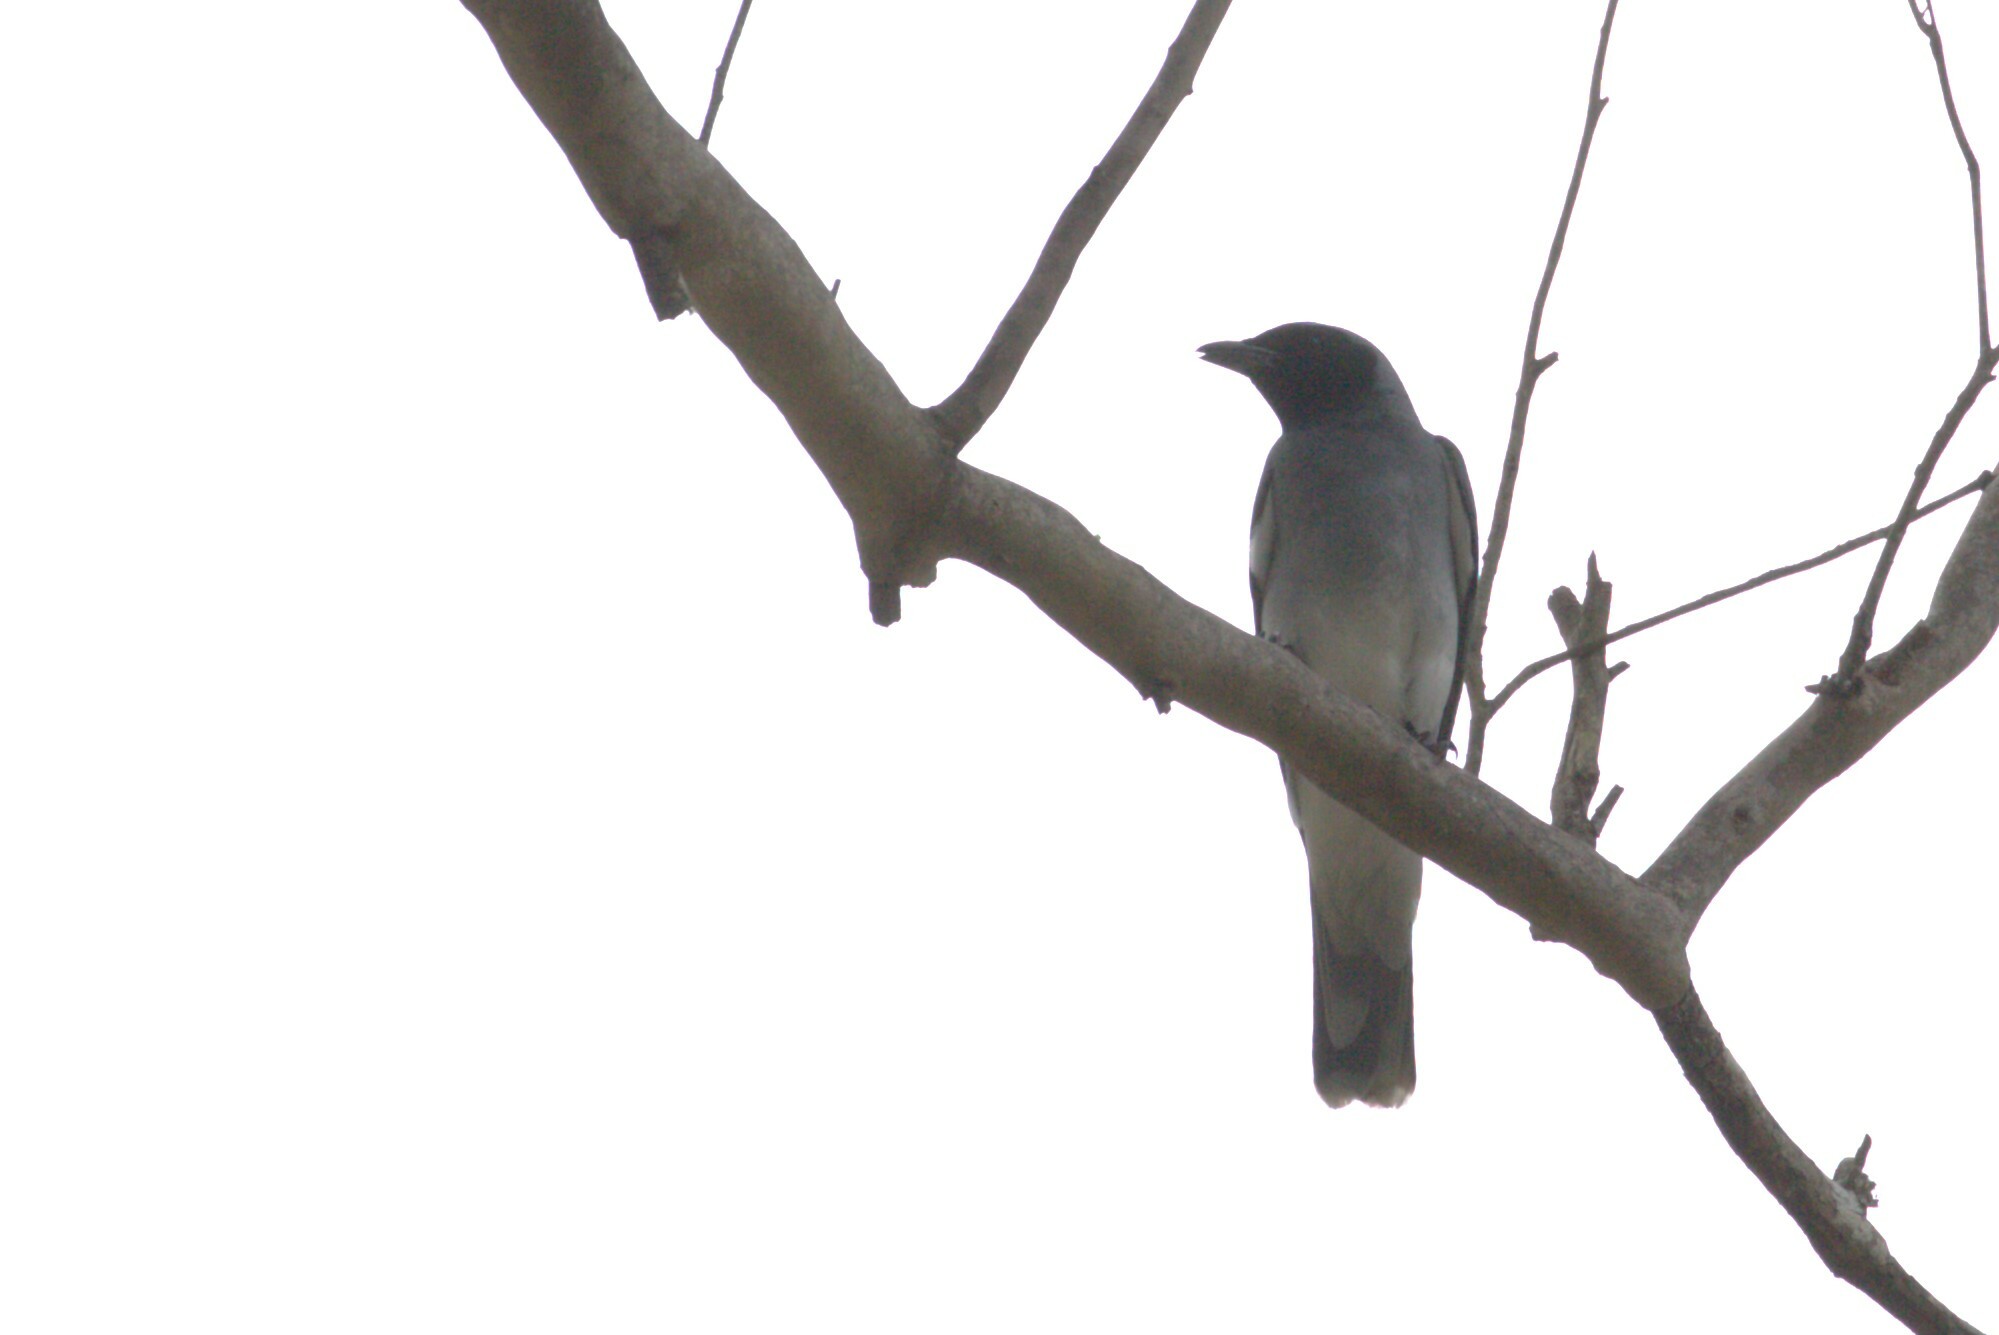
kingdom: Animalia
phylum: Chordata
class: Aves
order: Passeriformes
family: Campephagidae
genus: Coracina
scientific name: Coracina novaehollandiae
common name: Black-faced cuckooshrike
